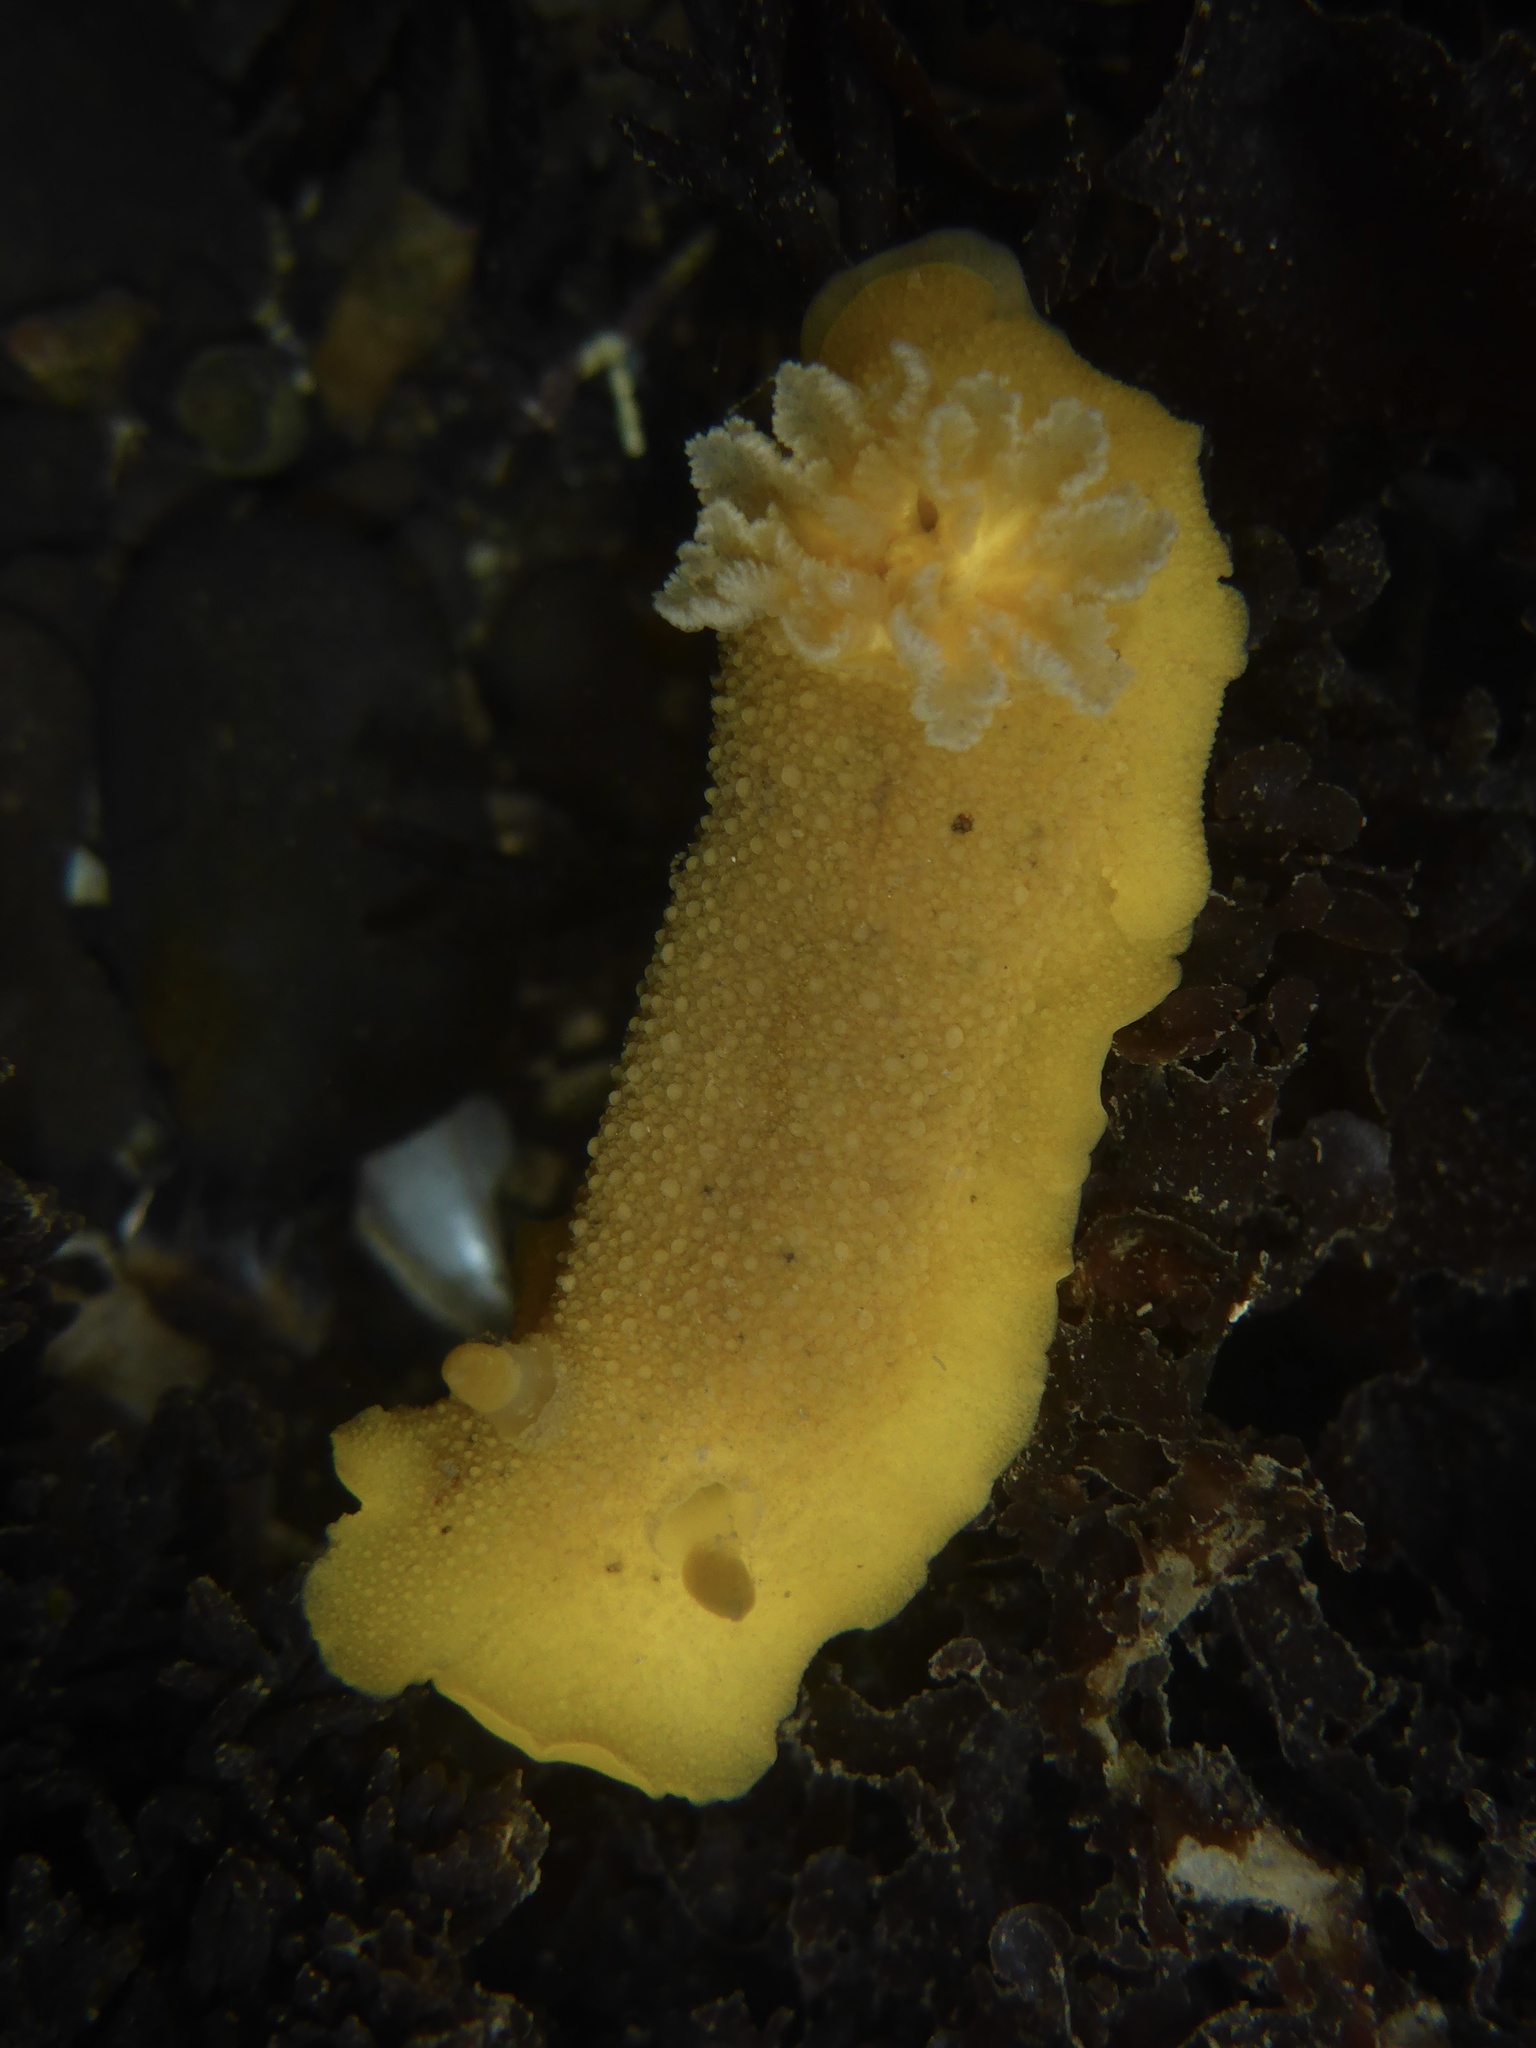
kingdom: Animalia
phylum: Mollusca
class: Gastropoda
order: Nudibranchia
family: Discodorididae
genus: Geitodoris
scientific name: Geitodoris heathi
